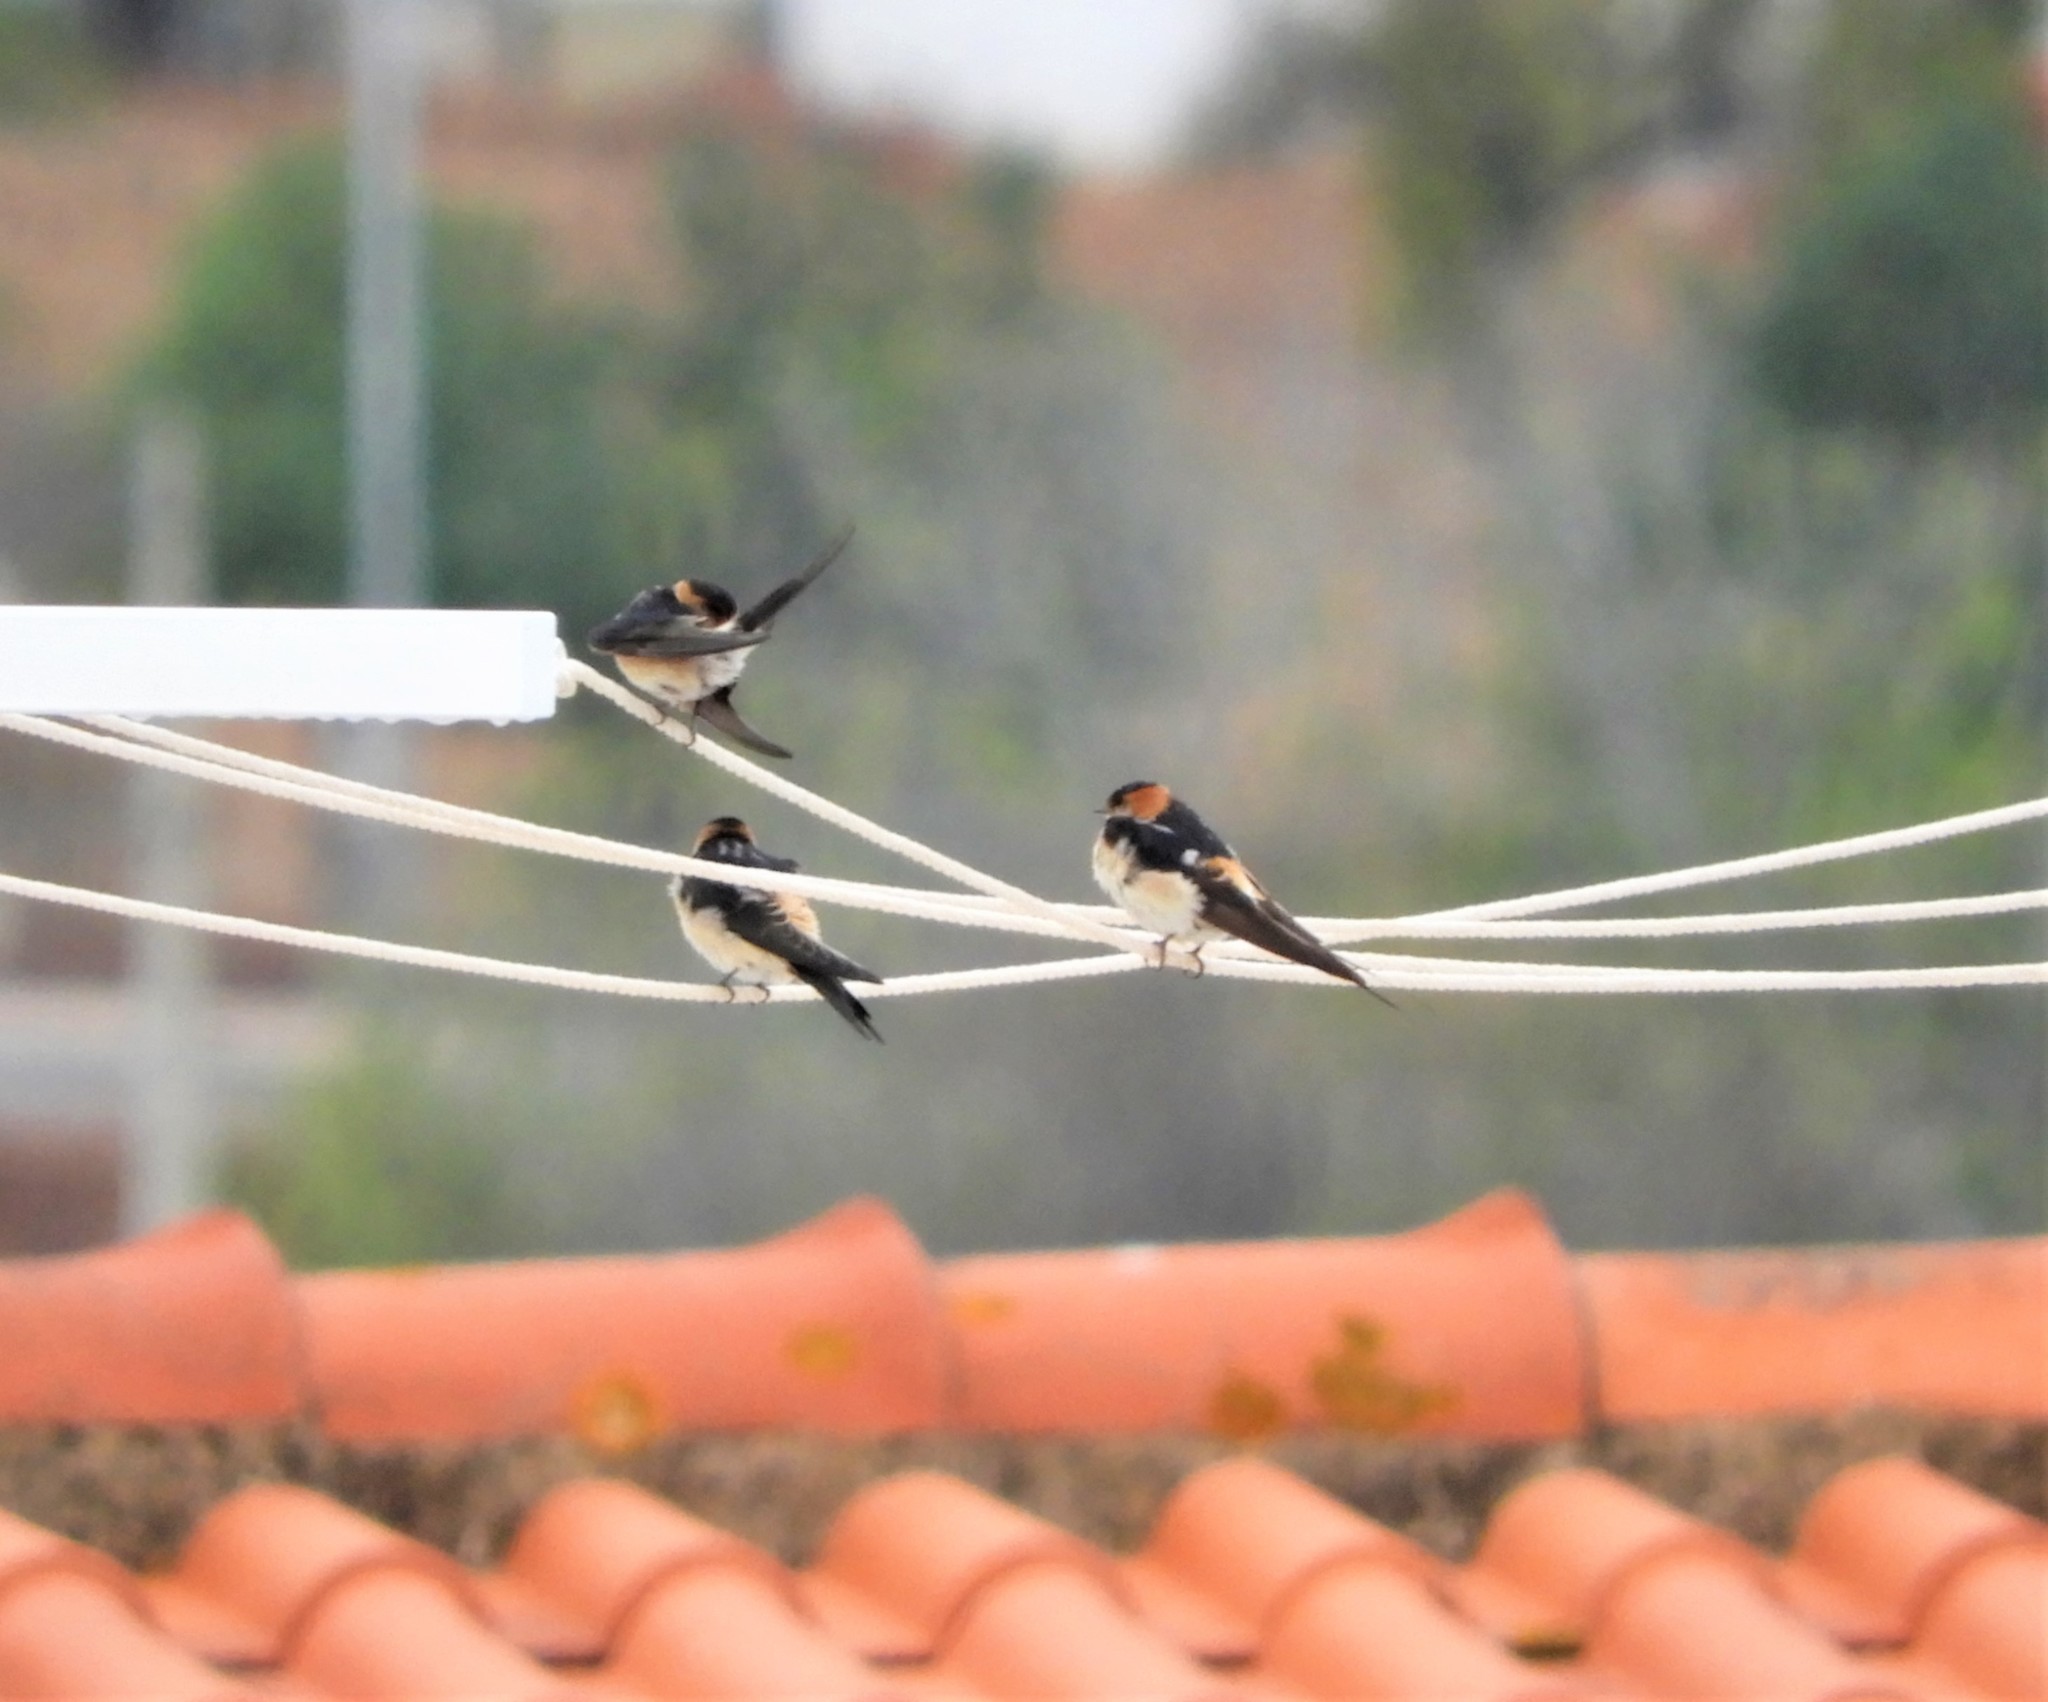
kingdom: Animalia
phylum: Chordata
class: Aves
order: Passeriformes
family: Hirundinidae
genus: Cecropis
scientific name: Cecropis daurica
